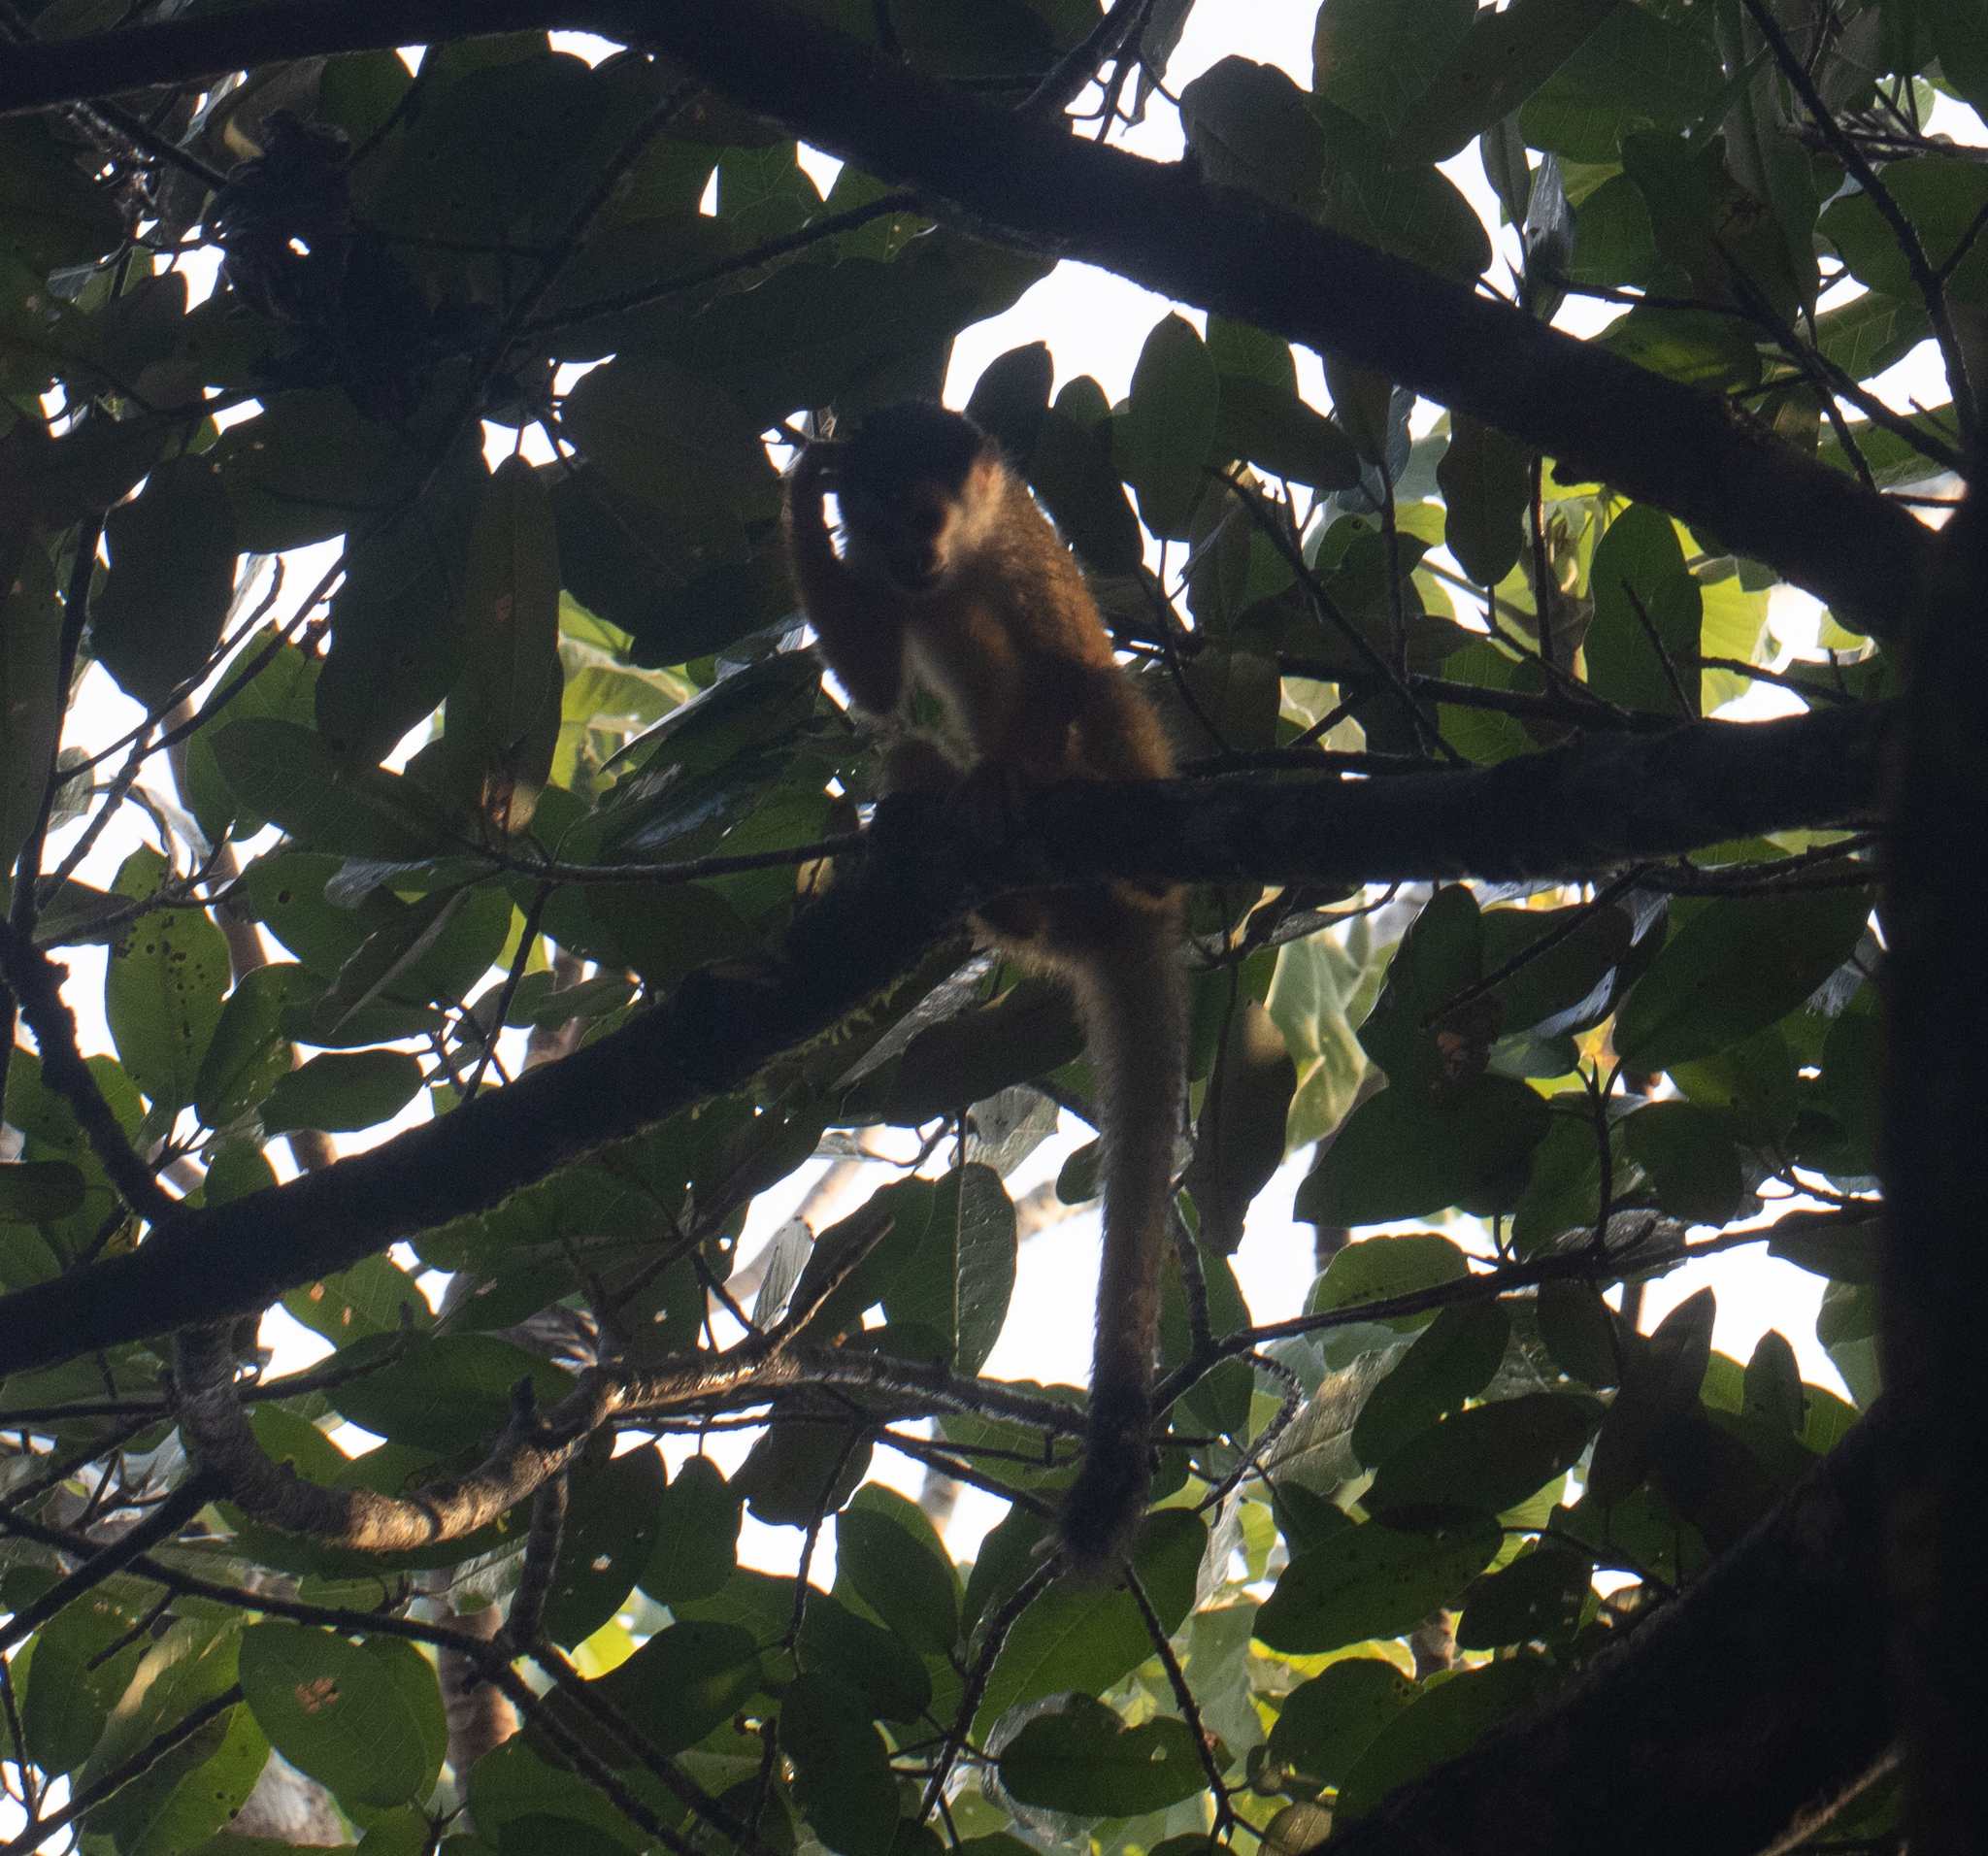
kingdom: Animalia
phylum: Chordata
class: Mammalia
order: Primates
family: Cebidae
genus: Saimiri
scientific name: Saimiri oerstedii
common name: Central american squirrel monkey
